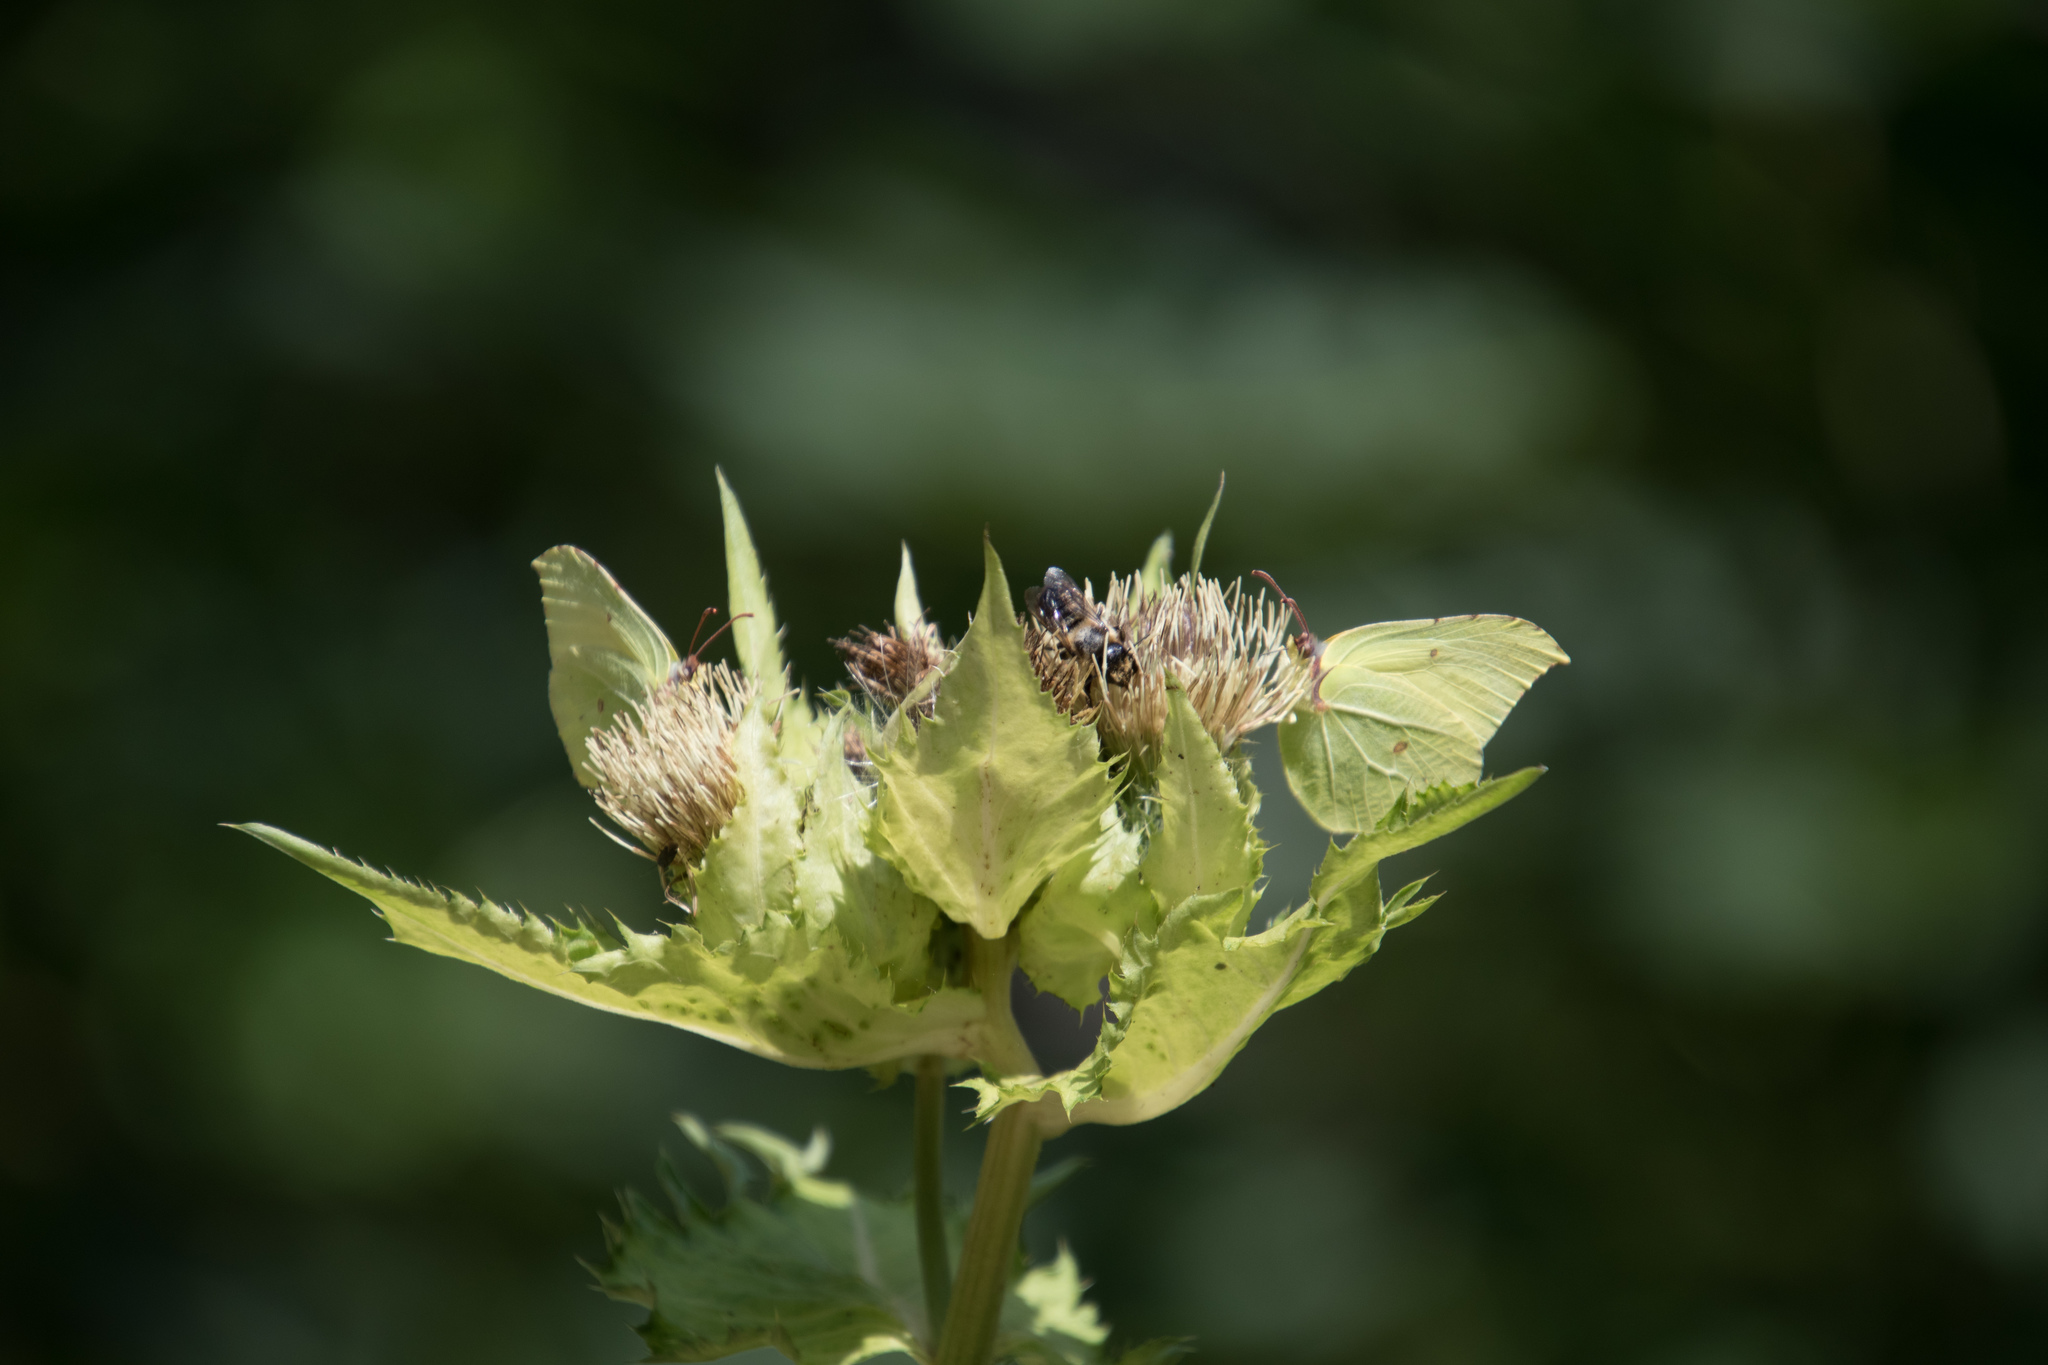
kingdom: Animalia
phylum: Arthropoda
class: Insecta
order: Lepidoptera
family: Pieridae
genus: Gonepteryx
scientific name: Gonepteryx rhamni
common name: Brimstone
